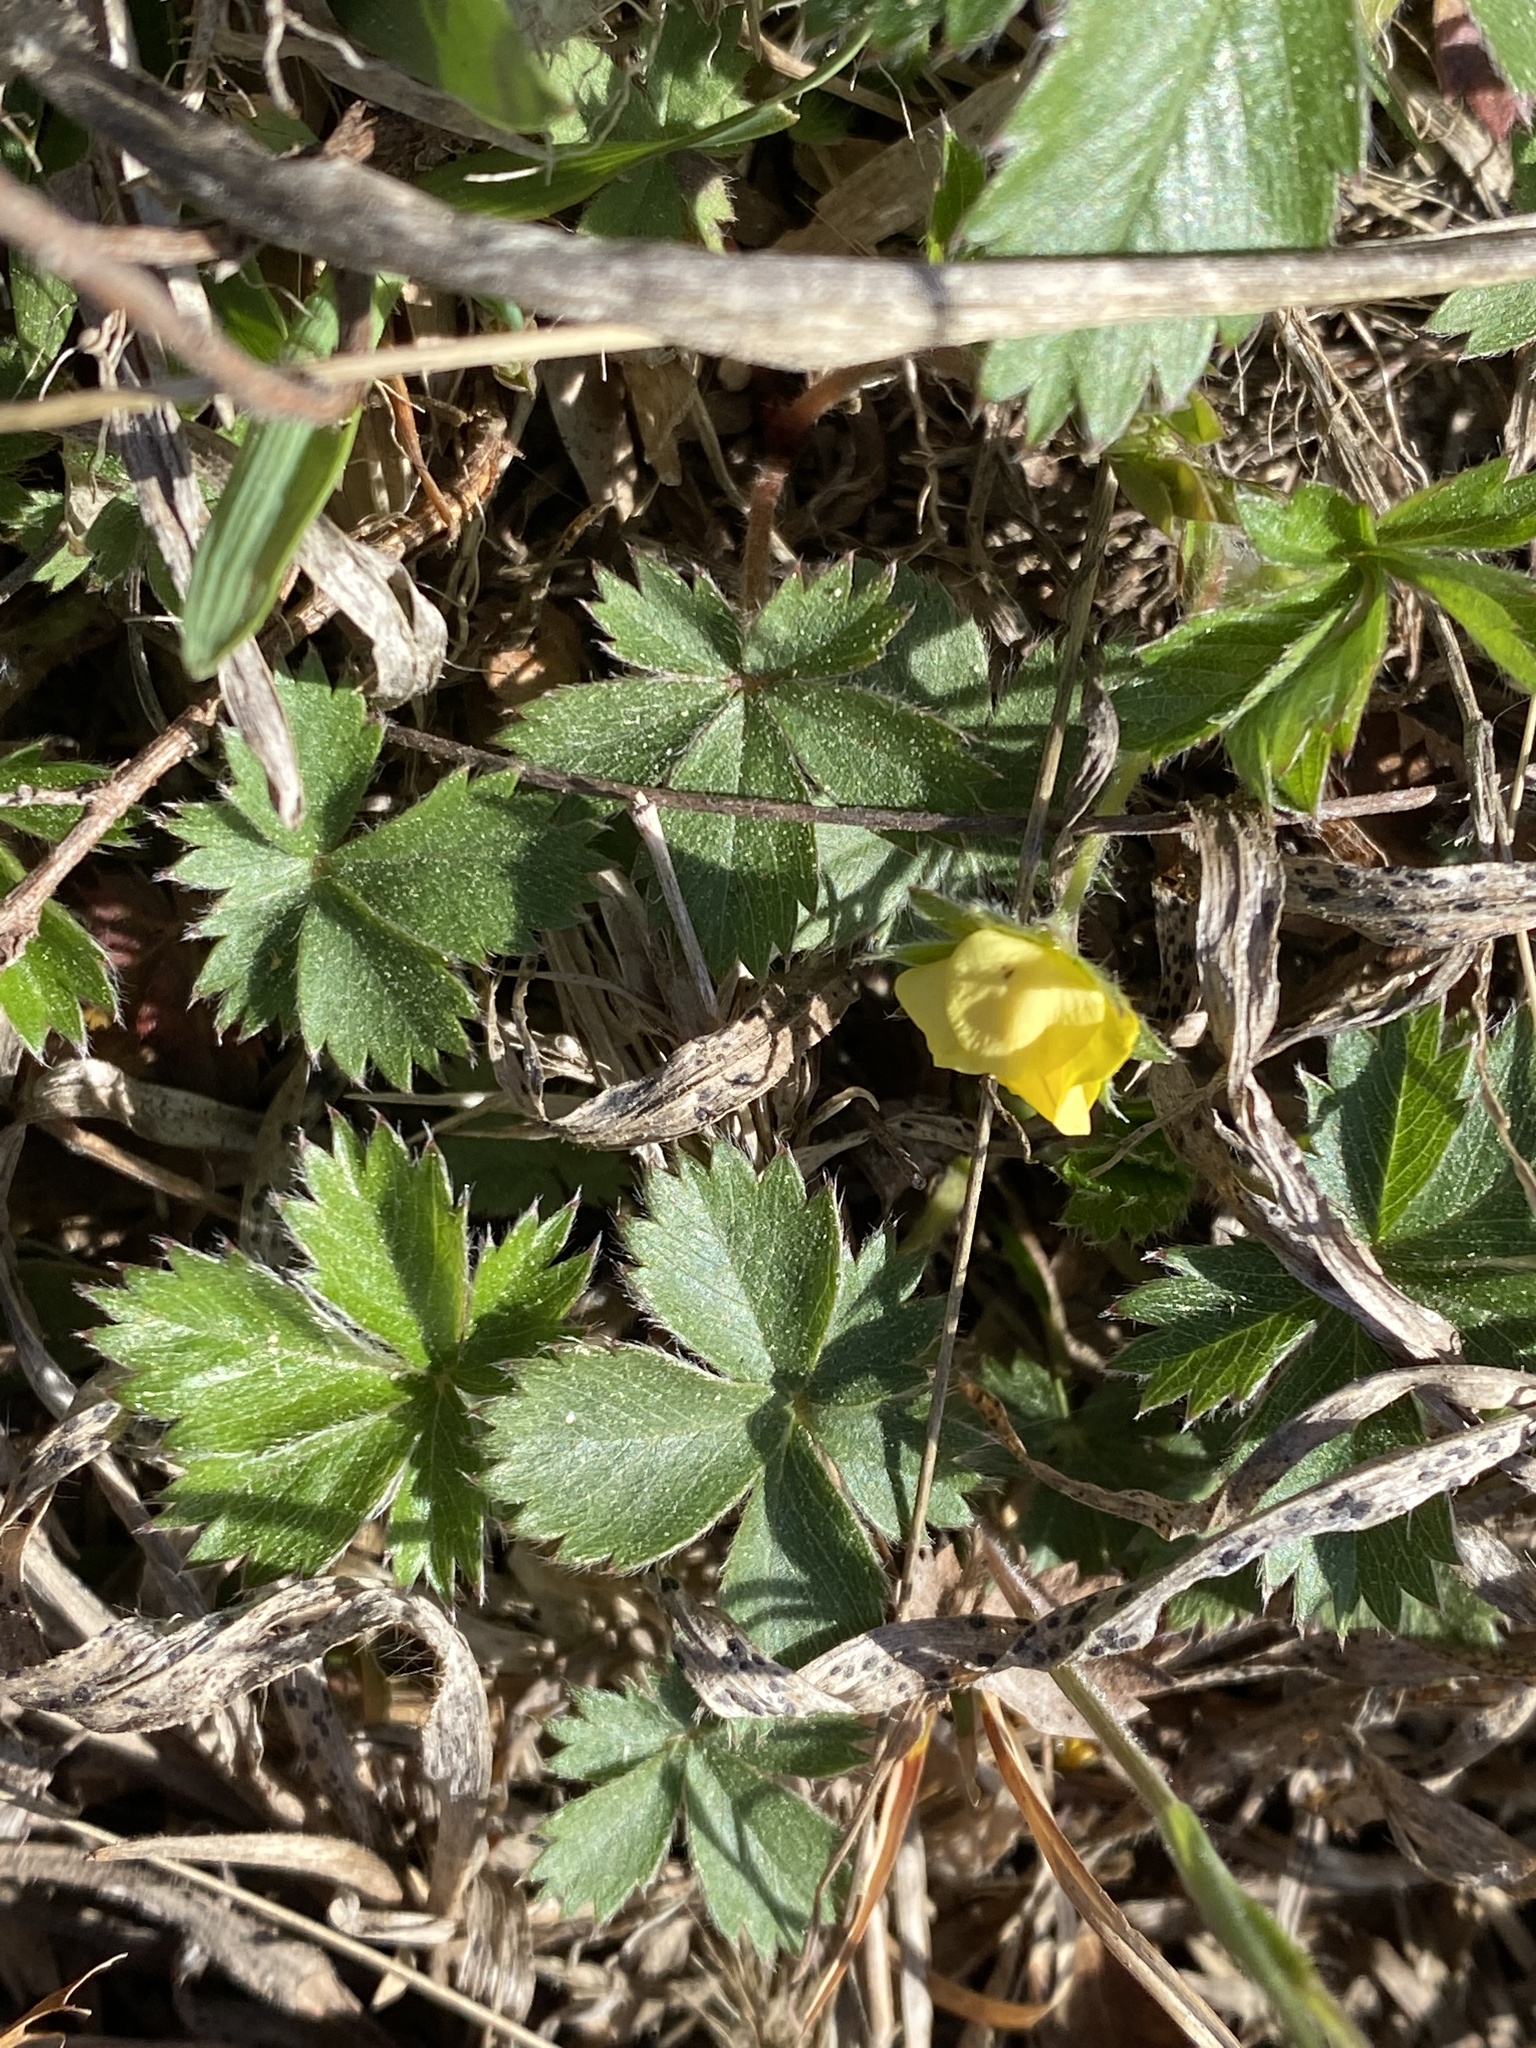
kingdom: Plantae
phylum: Tracheophyta
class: Magnoliopsida
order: Rosales
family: Rosaceae
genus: Potentilla
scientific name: Potentilla canadensis
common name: Canada cinquefoil
